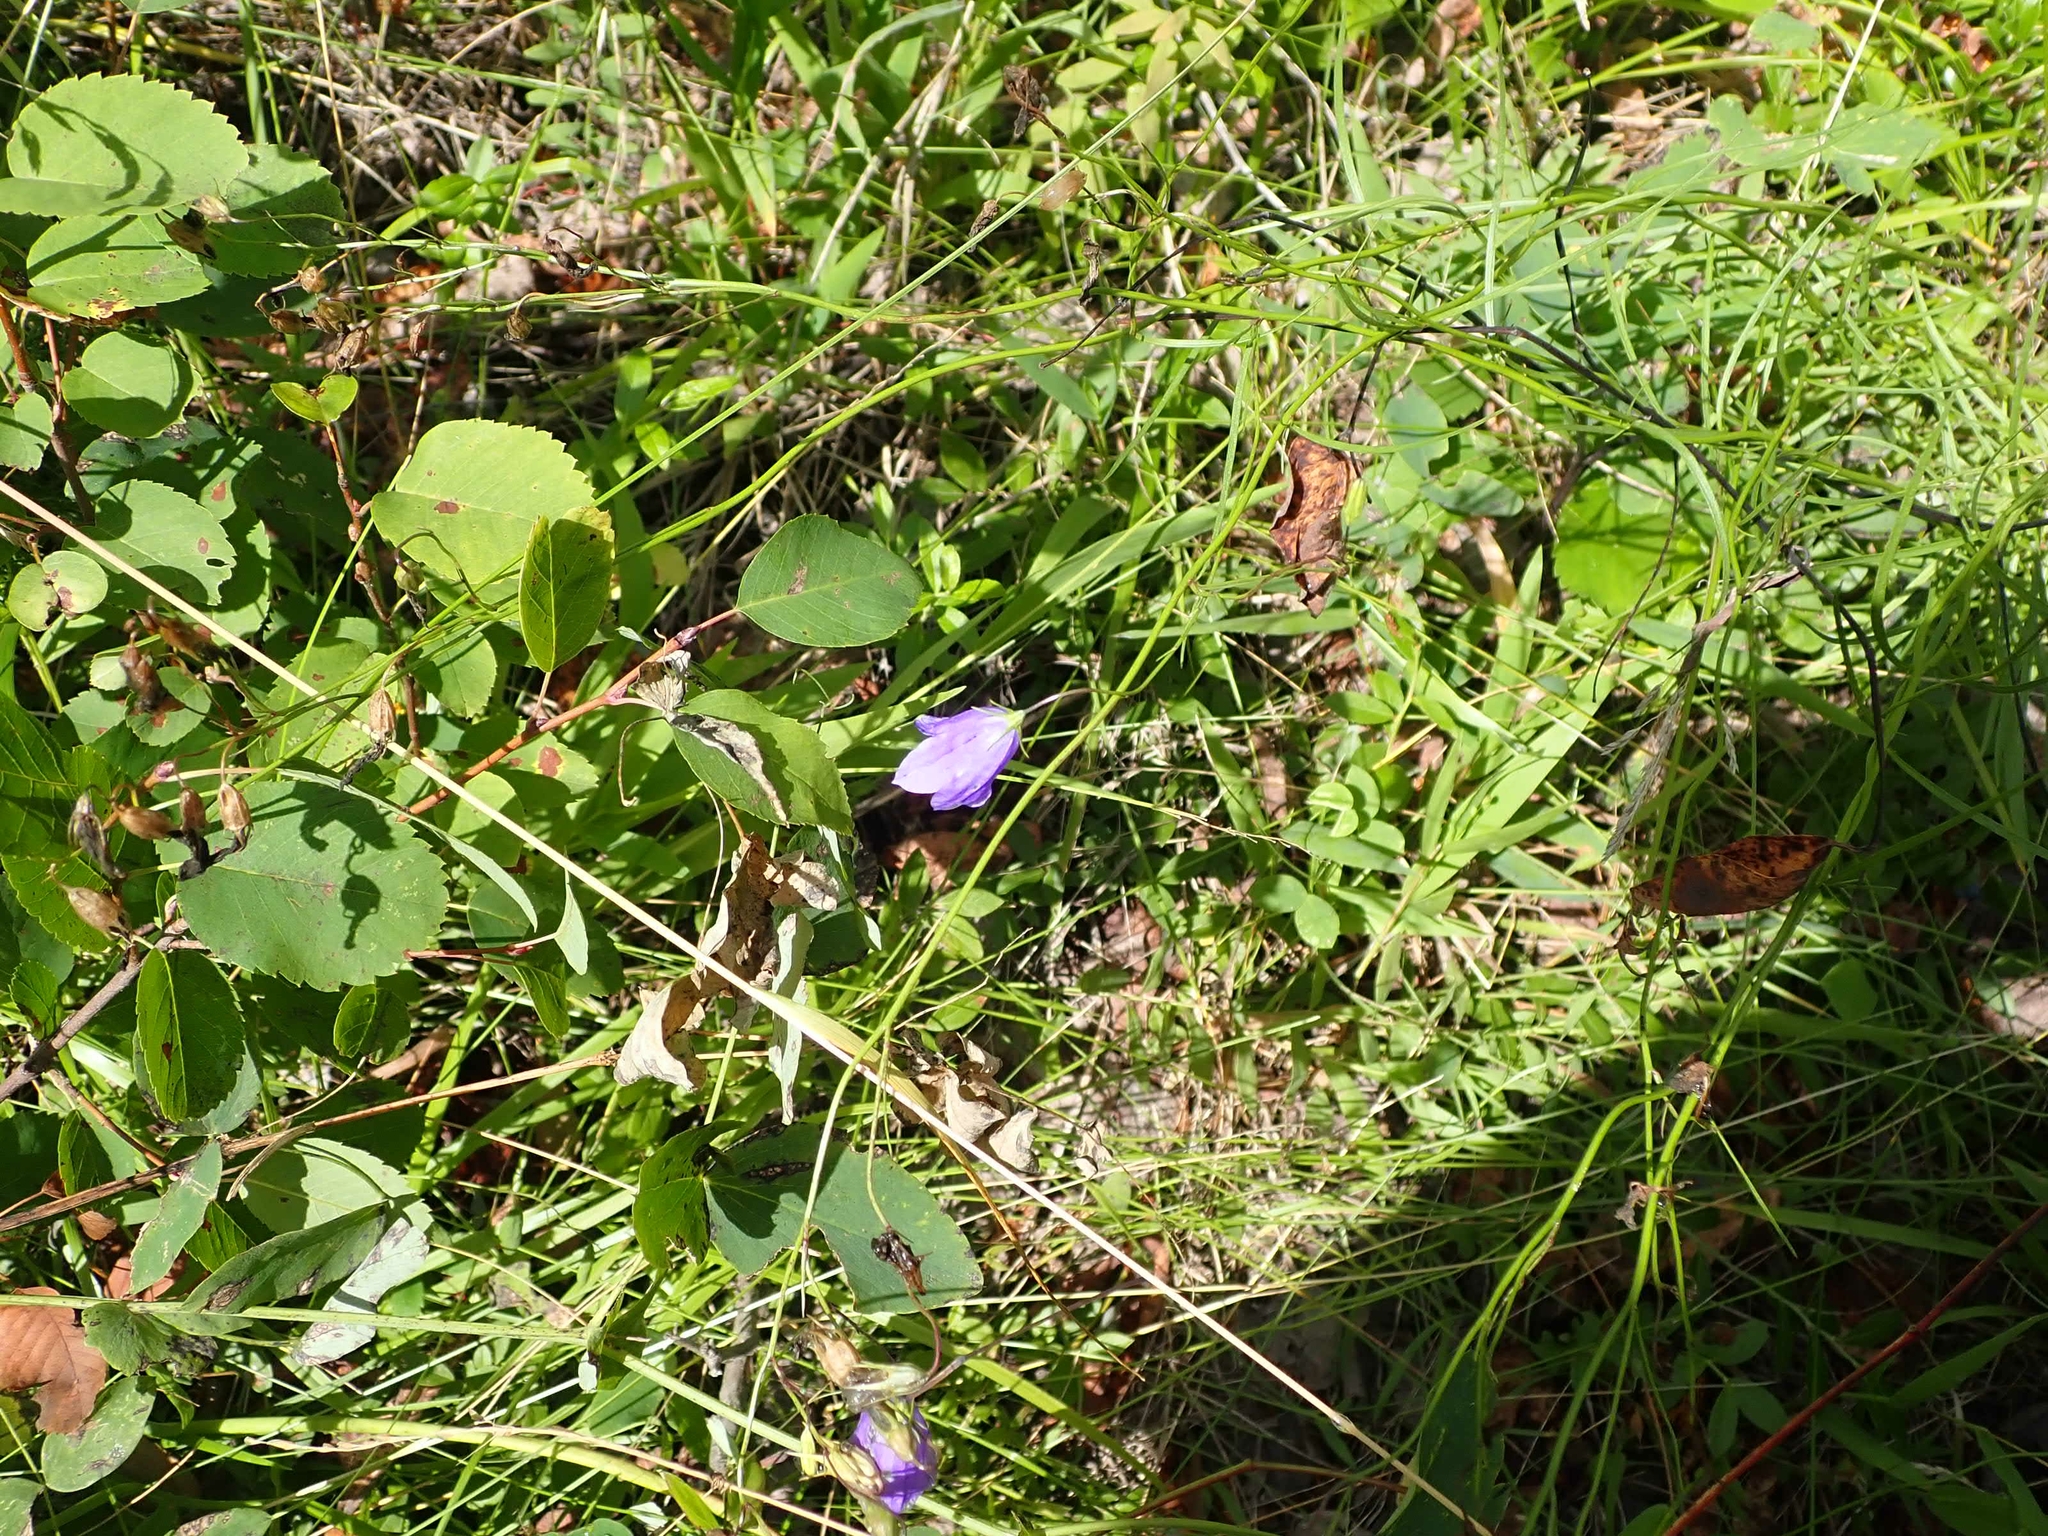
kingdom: Plantae
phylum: Tracheophyta
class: Magnoliopsida
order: Asterales
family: Campanulaceae
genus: Campanula
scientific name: Campanula petiolata
